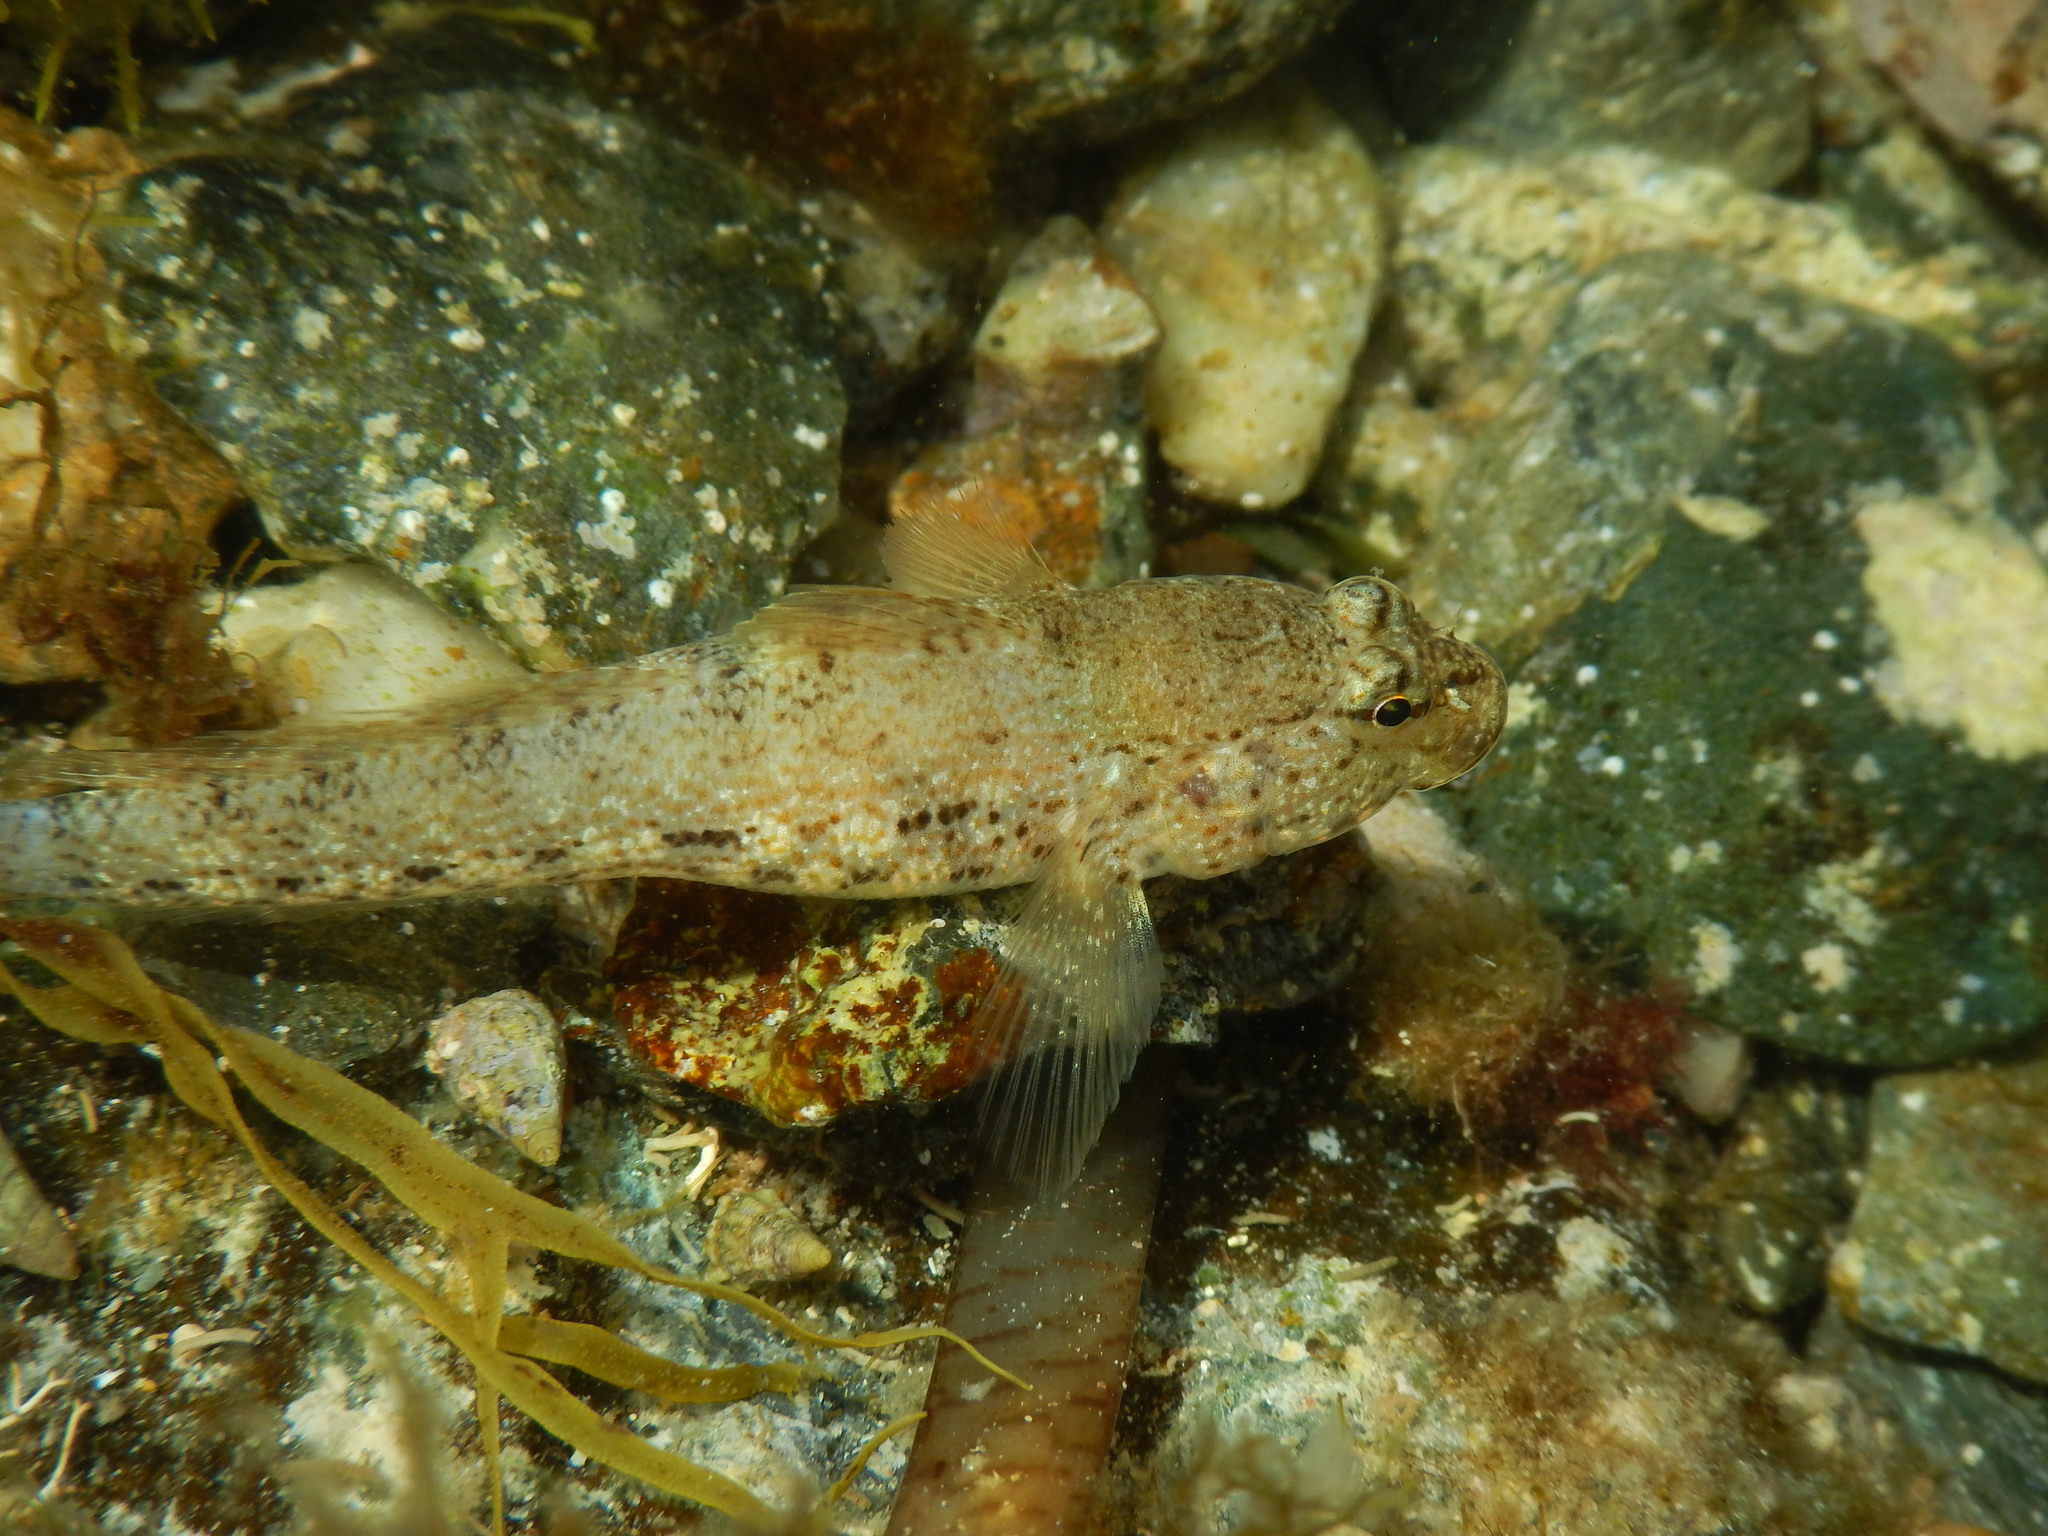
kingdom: Animalia
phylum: Chordata
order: Perciformes
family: Gobiidae
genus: Gobius
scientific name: Gobius incognitus
